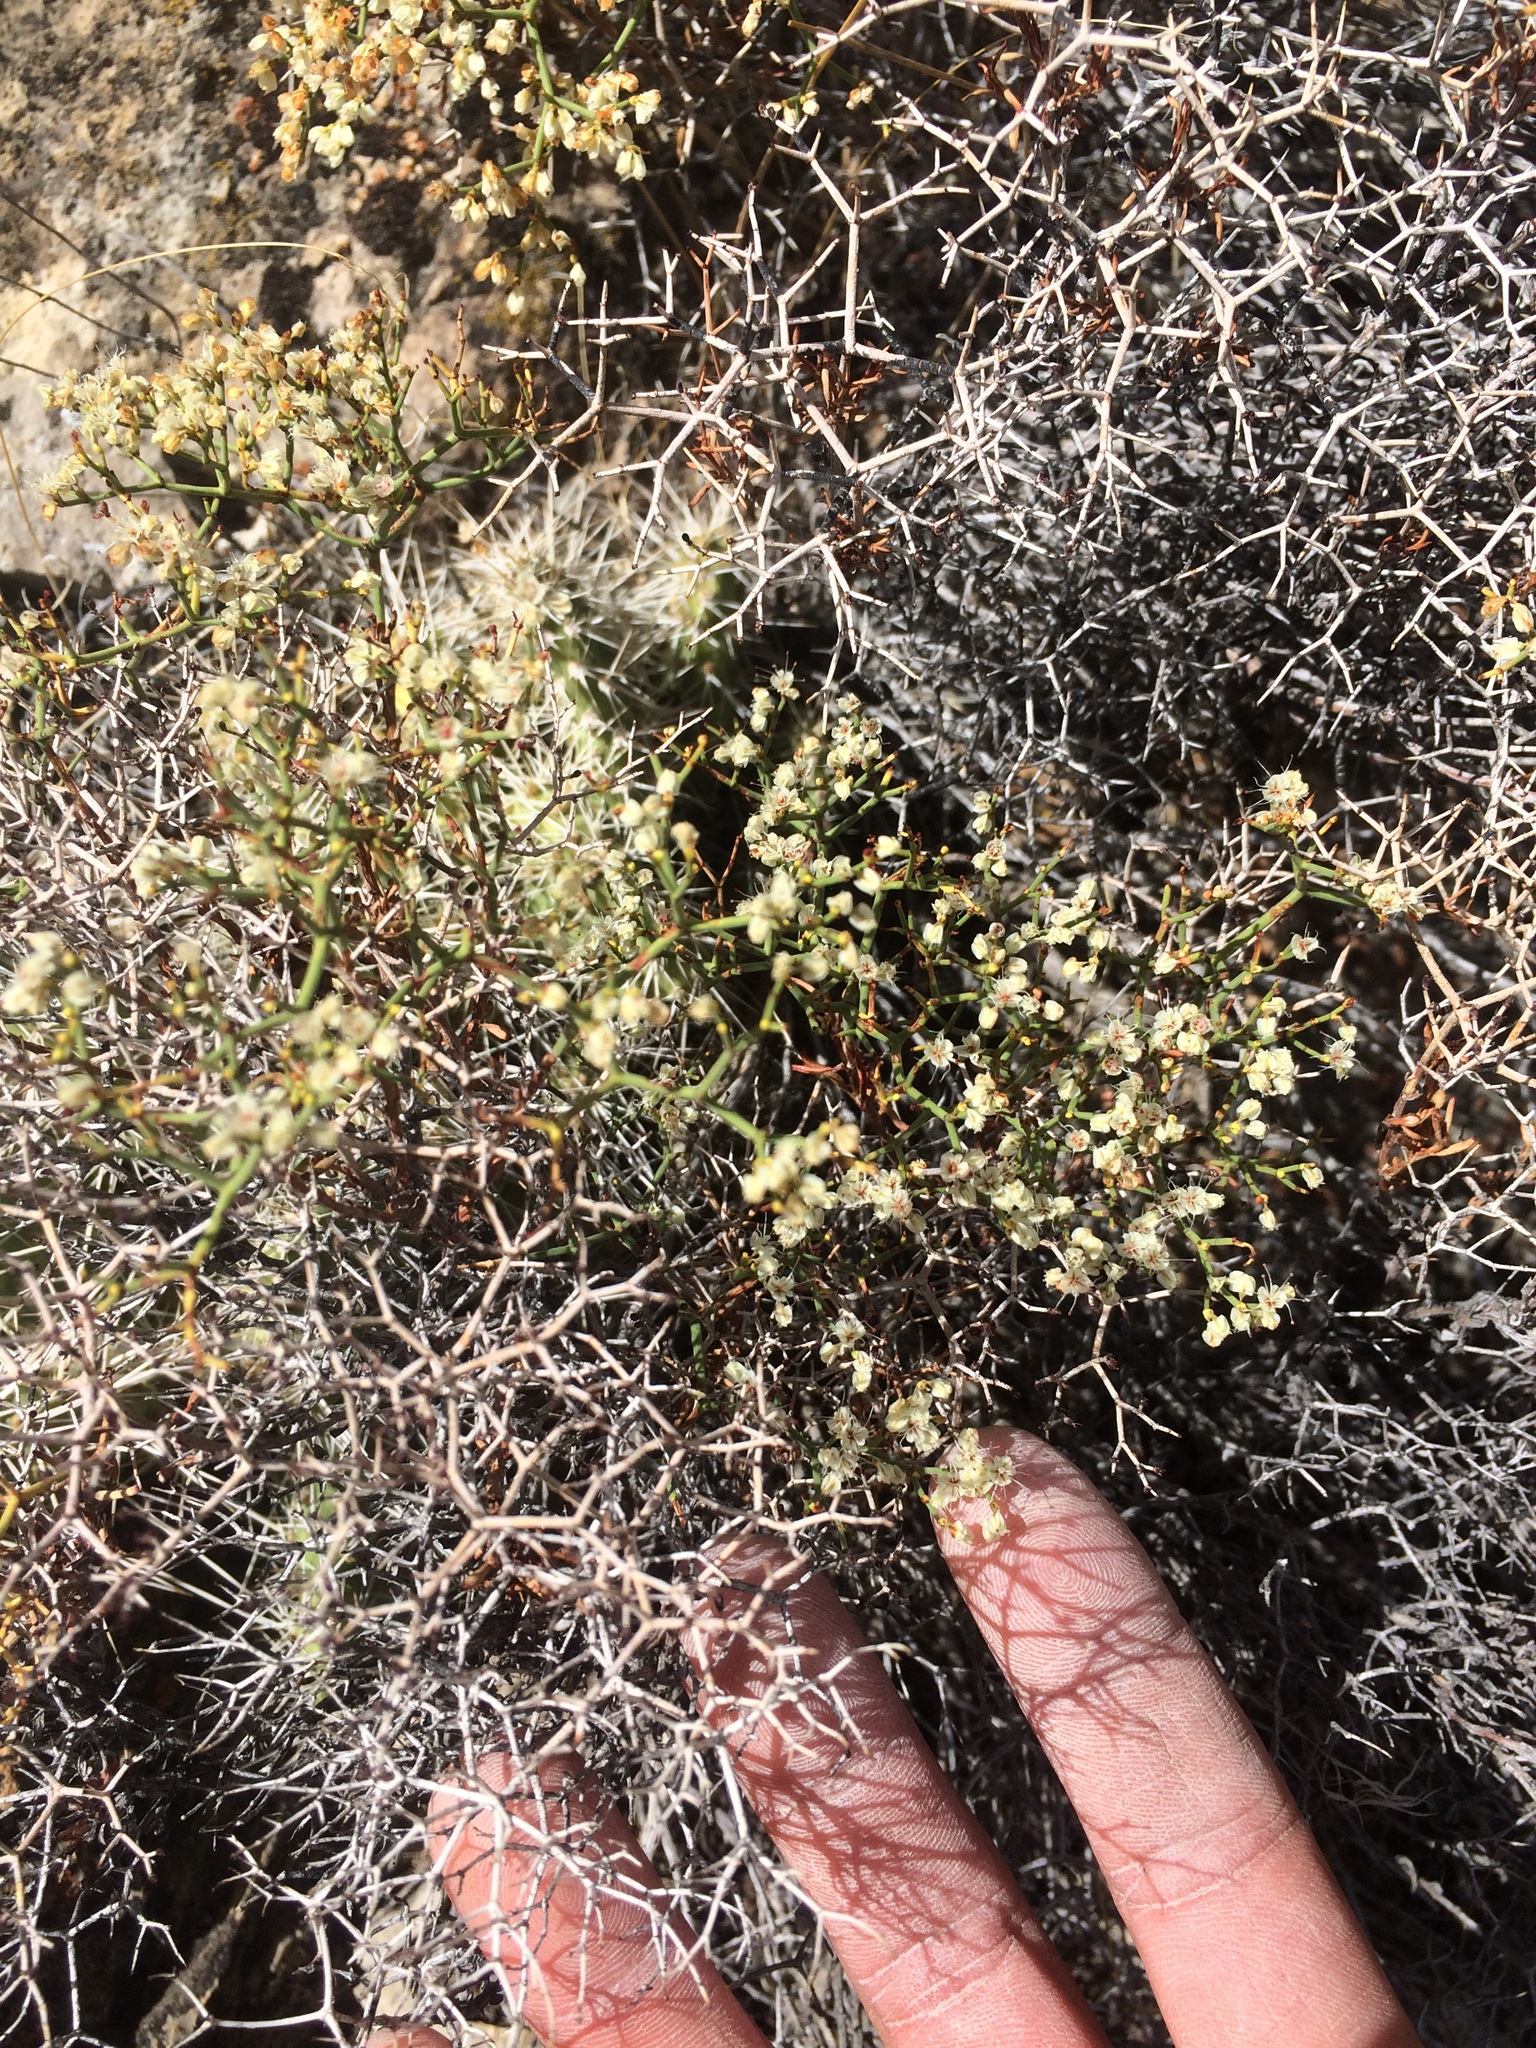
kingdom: Plantae
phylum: Tracheophyta
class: Magnoliopsida
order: Caryophyllales
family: Polygonaceae
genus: Eriogonum
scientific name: Eriogonum heermannii
